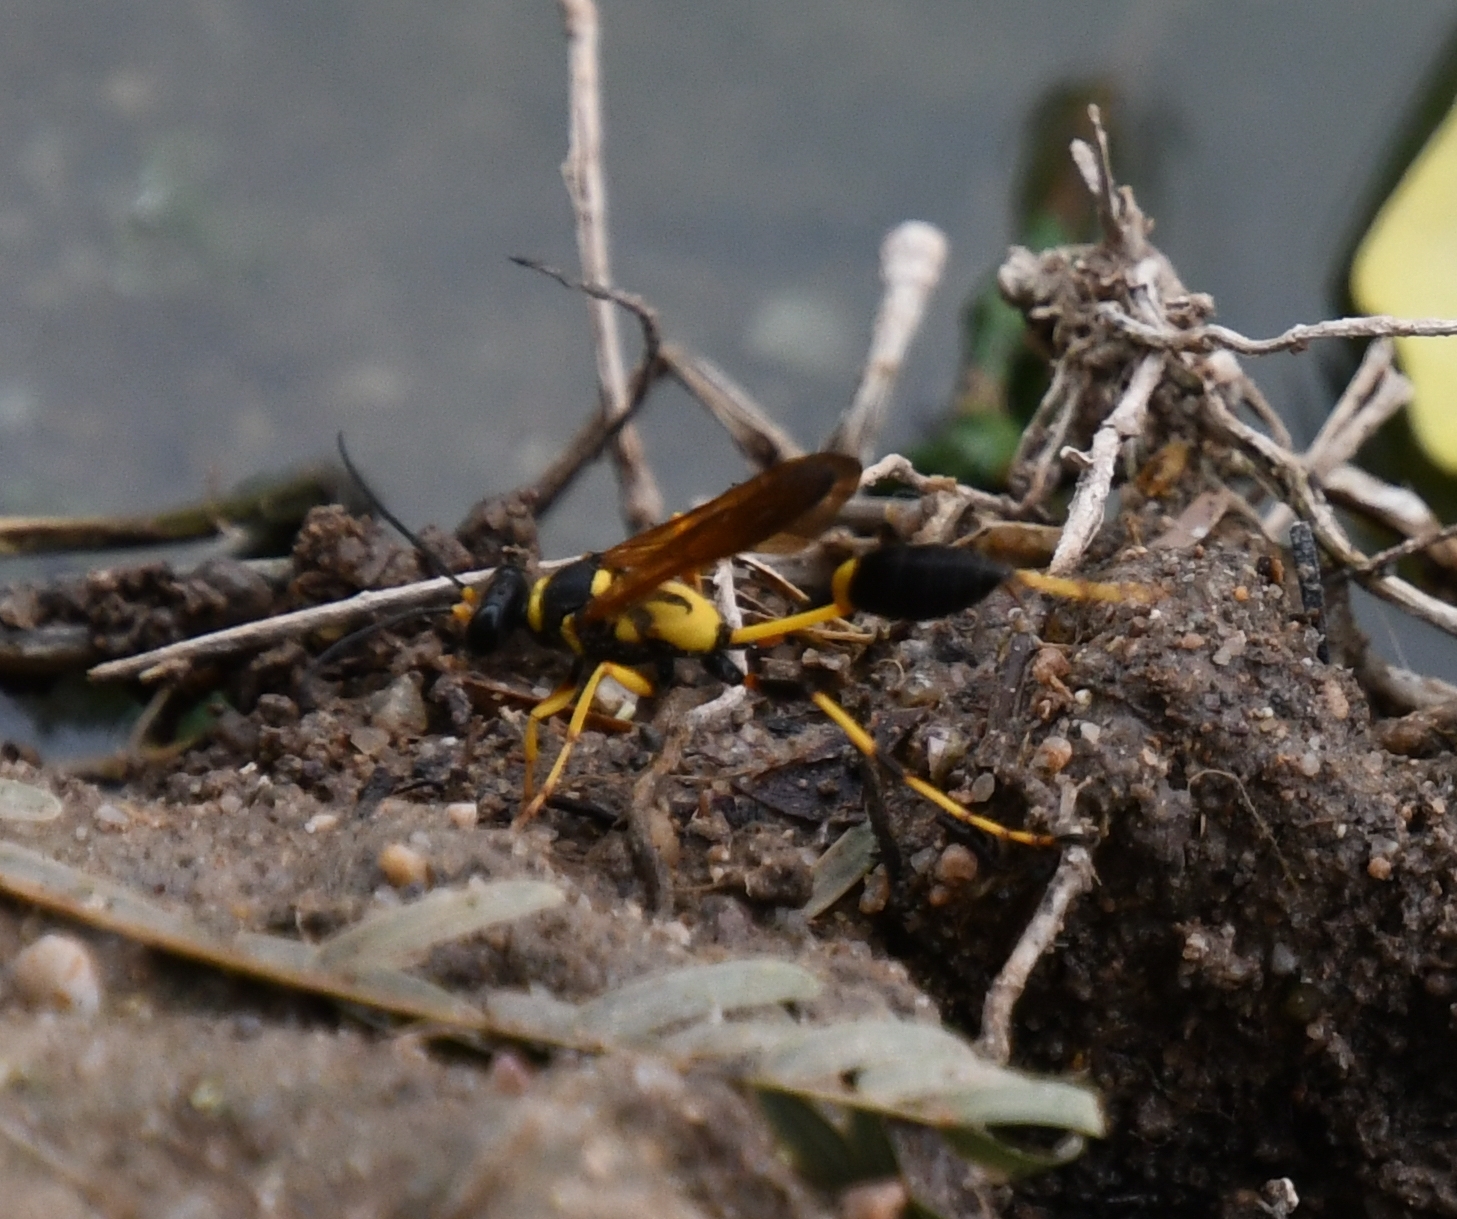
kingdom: Animalia
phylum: Arthropoda
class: Insecta
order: Hymenoptera
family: Sphecidae
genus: Sceliphron
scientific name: Sceliphron caementarium
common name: Mud dauber
